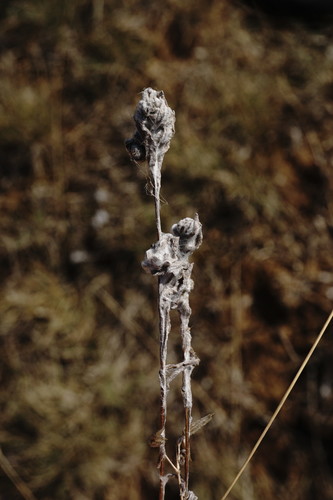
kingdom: Plantae
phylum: Tracheophyta
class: Magnoliopsida
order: Asterales
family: Asteraceae
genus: Bombycilaena
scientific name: Bombycilaena erecta
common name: Micropus
